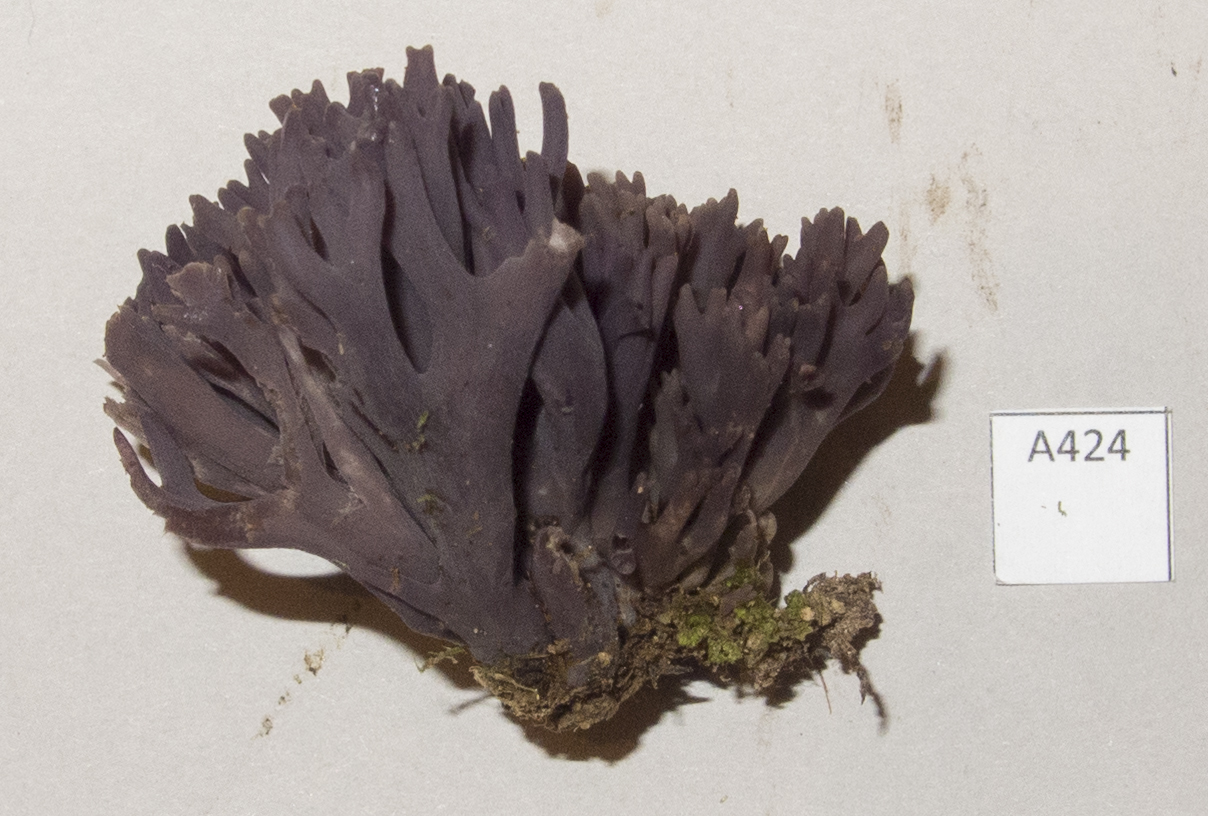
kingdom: Fungi
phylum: Basidiomycota
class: Agaricomycetes
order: Agaricales
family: Clavariaceae
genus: Clavaria
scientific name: Clavaria zollingeri
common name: Violet coral
